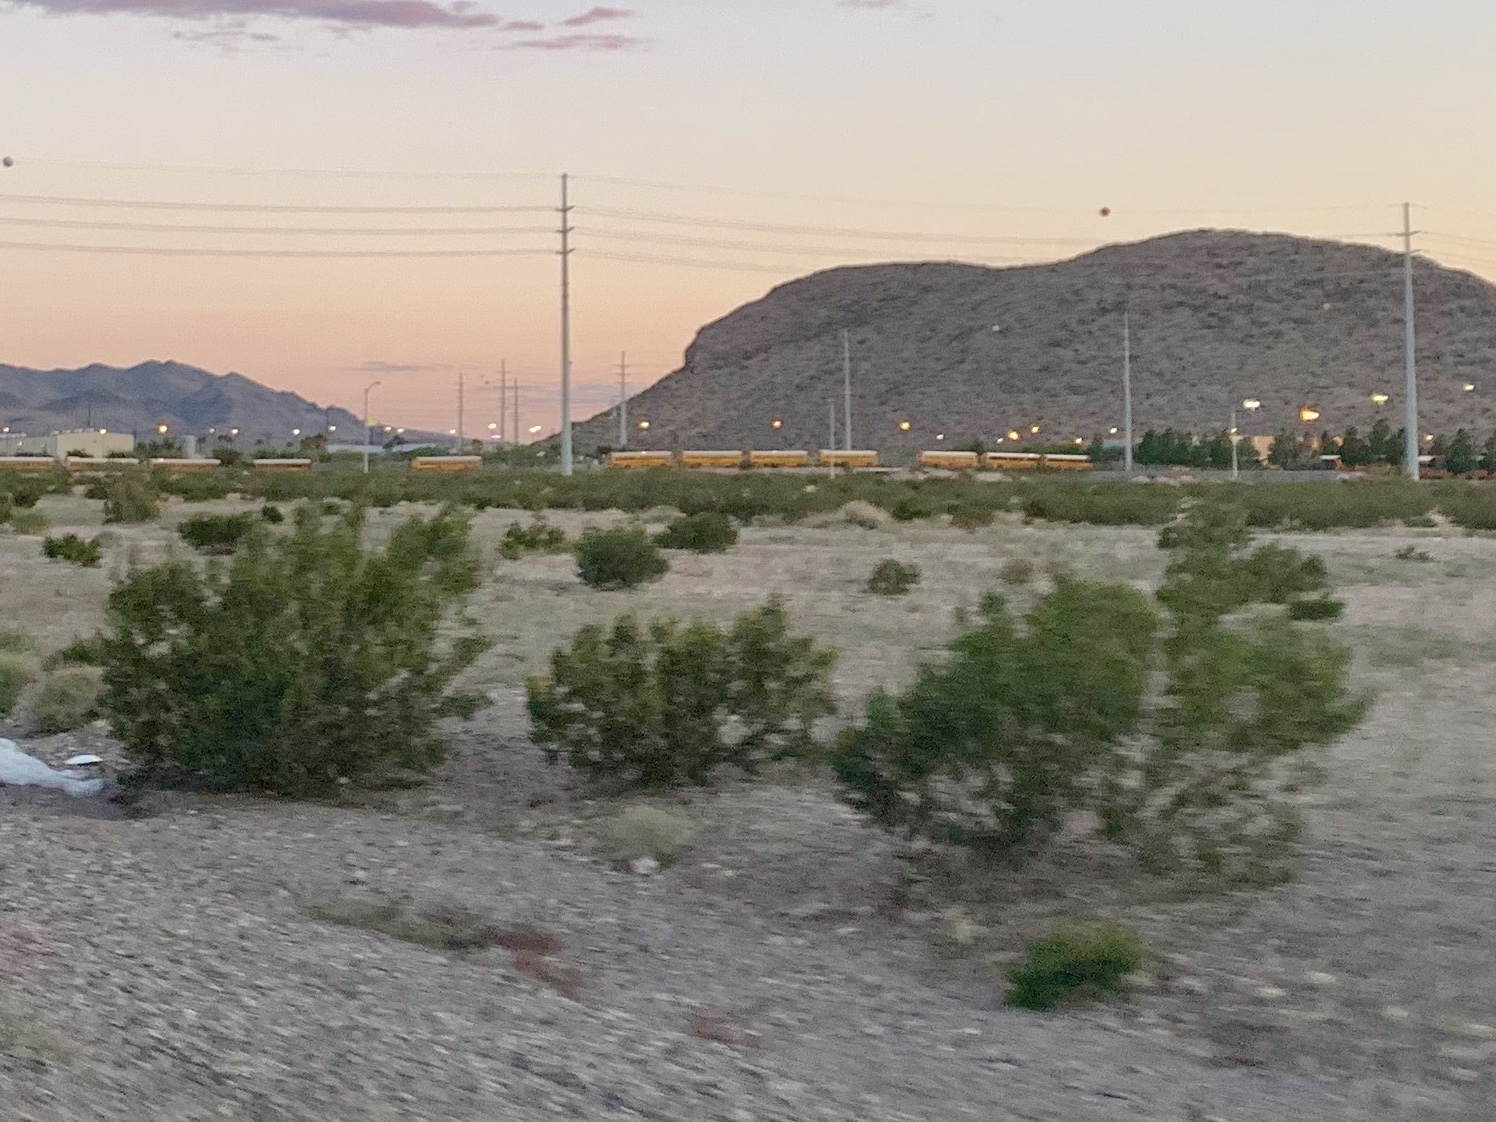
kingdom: Plantae
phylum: Tracheophyta
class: Magnoliopsida
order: Zygophyllales
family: Zygophyllaceae
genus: Larrea
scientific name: Larrea tridentata
